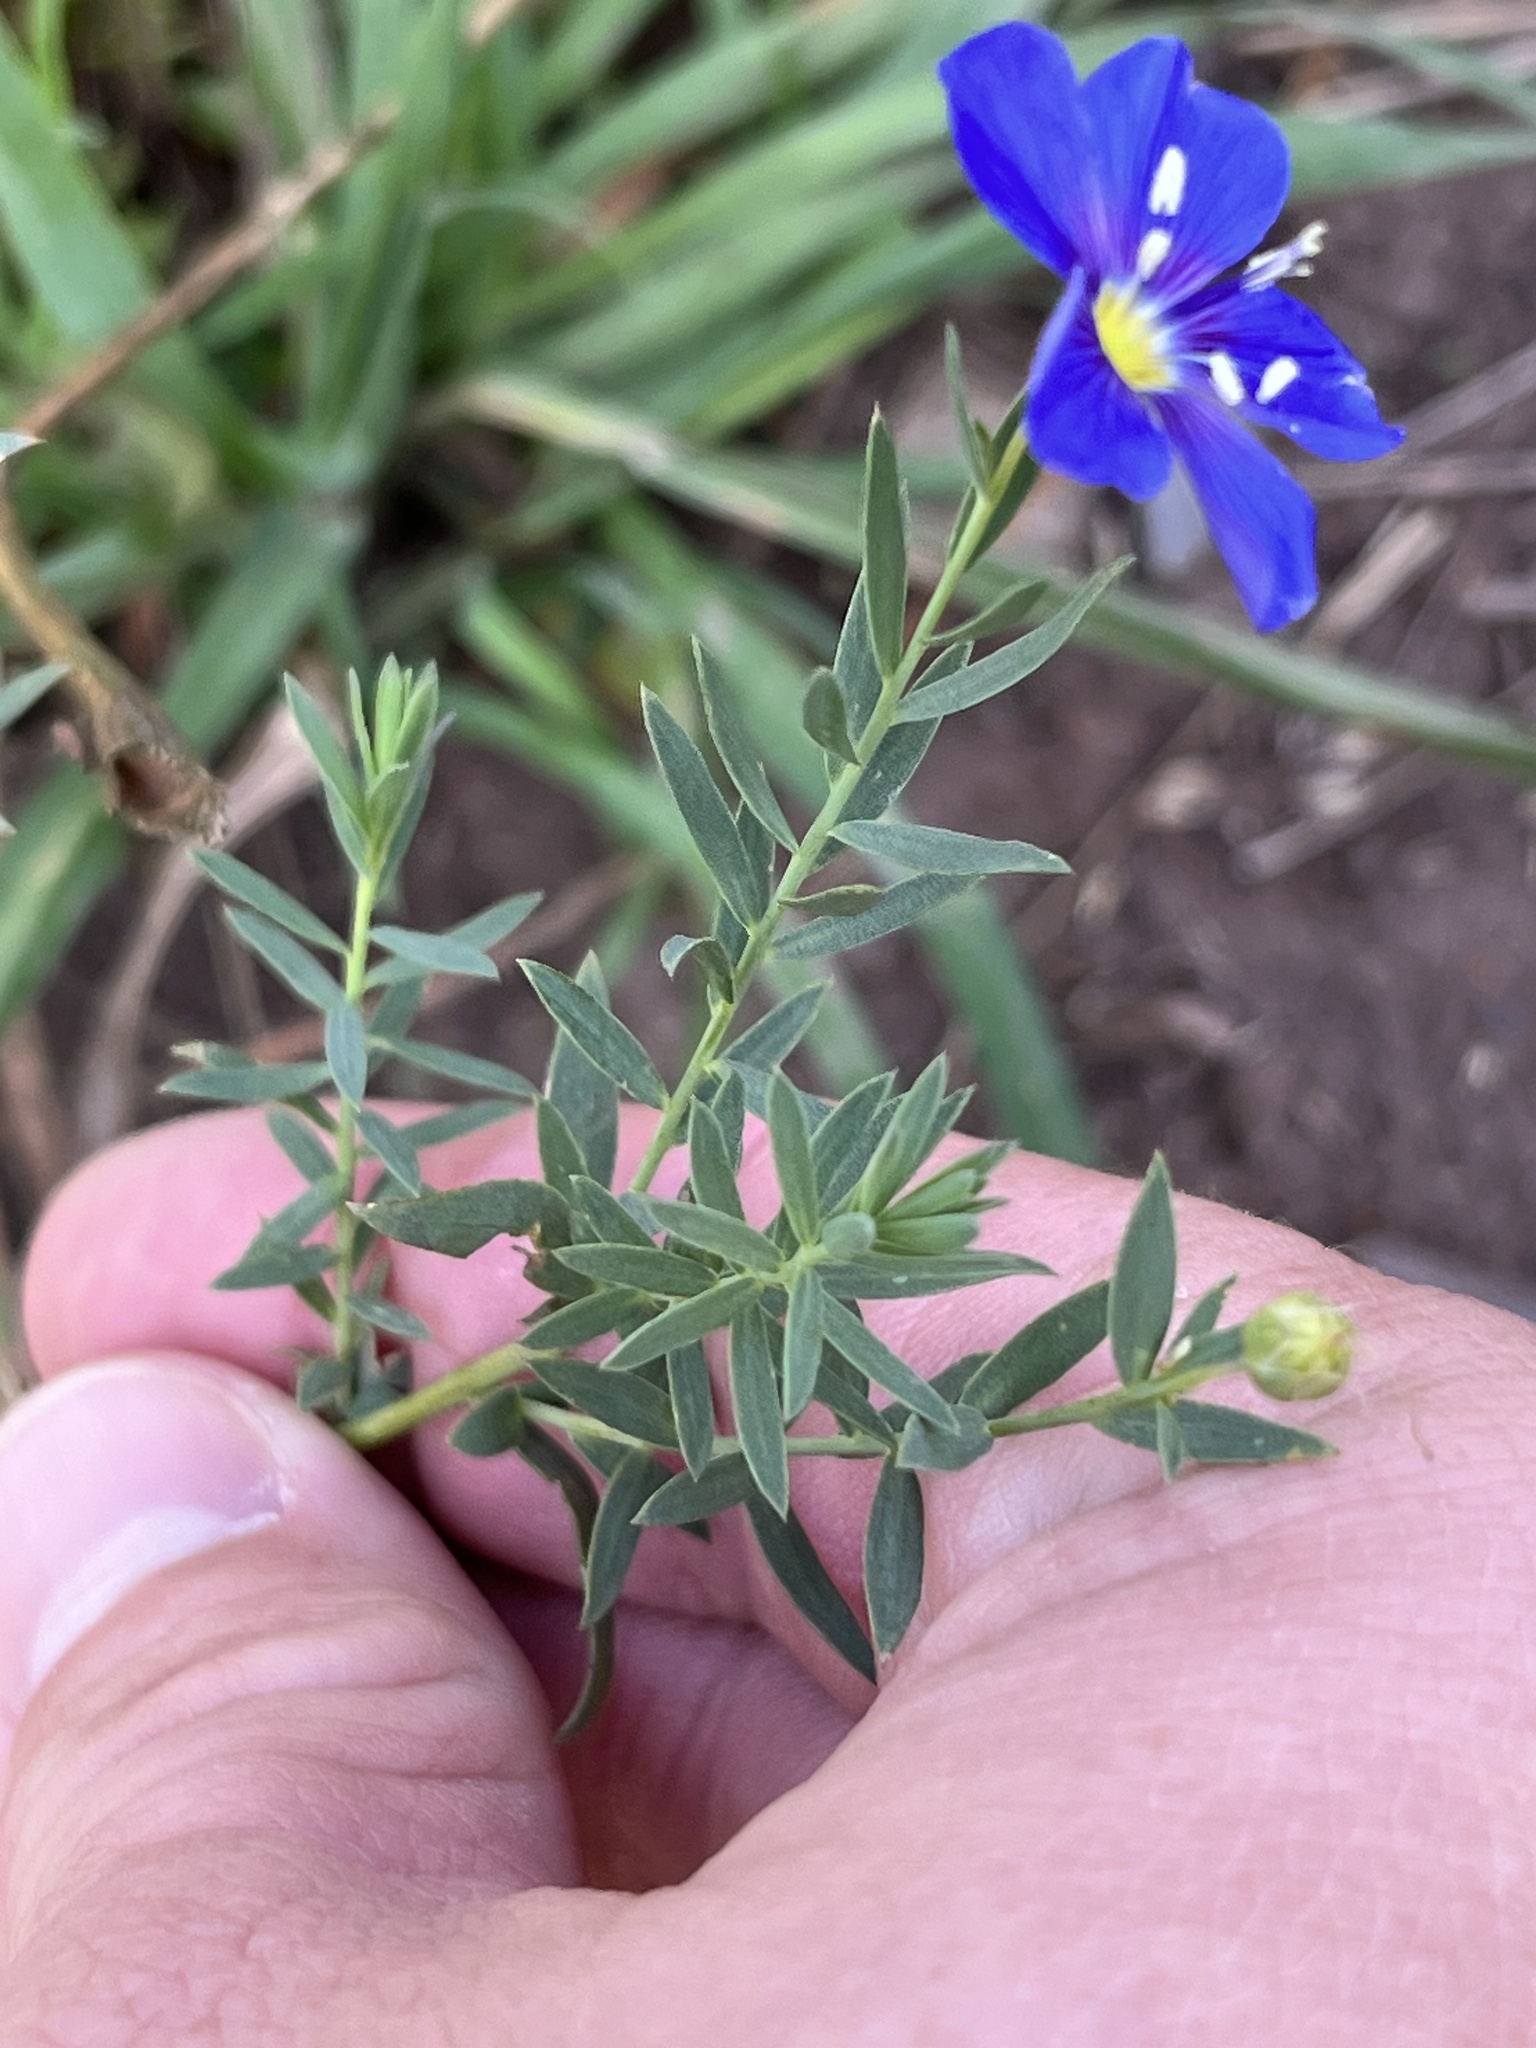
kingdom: Plantae
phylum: Tracheophyta
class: Magnoliopsida
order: Malpighiales
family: Linaceae
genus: Linum
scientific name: Linum lewisii
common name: Prairie flax
